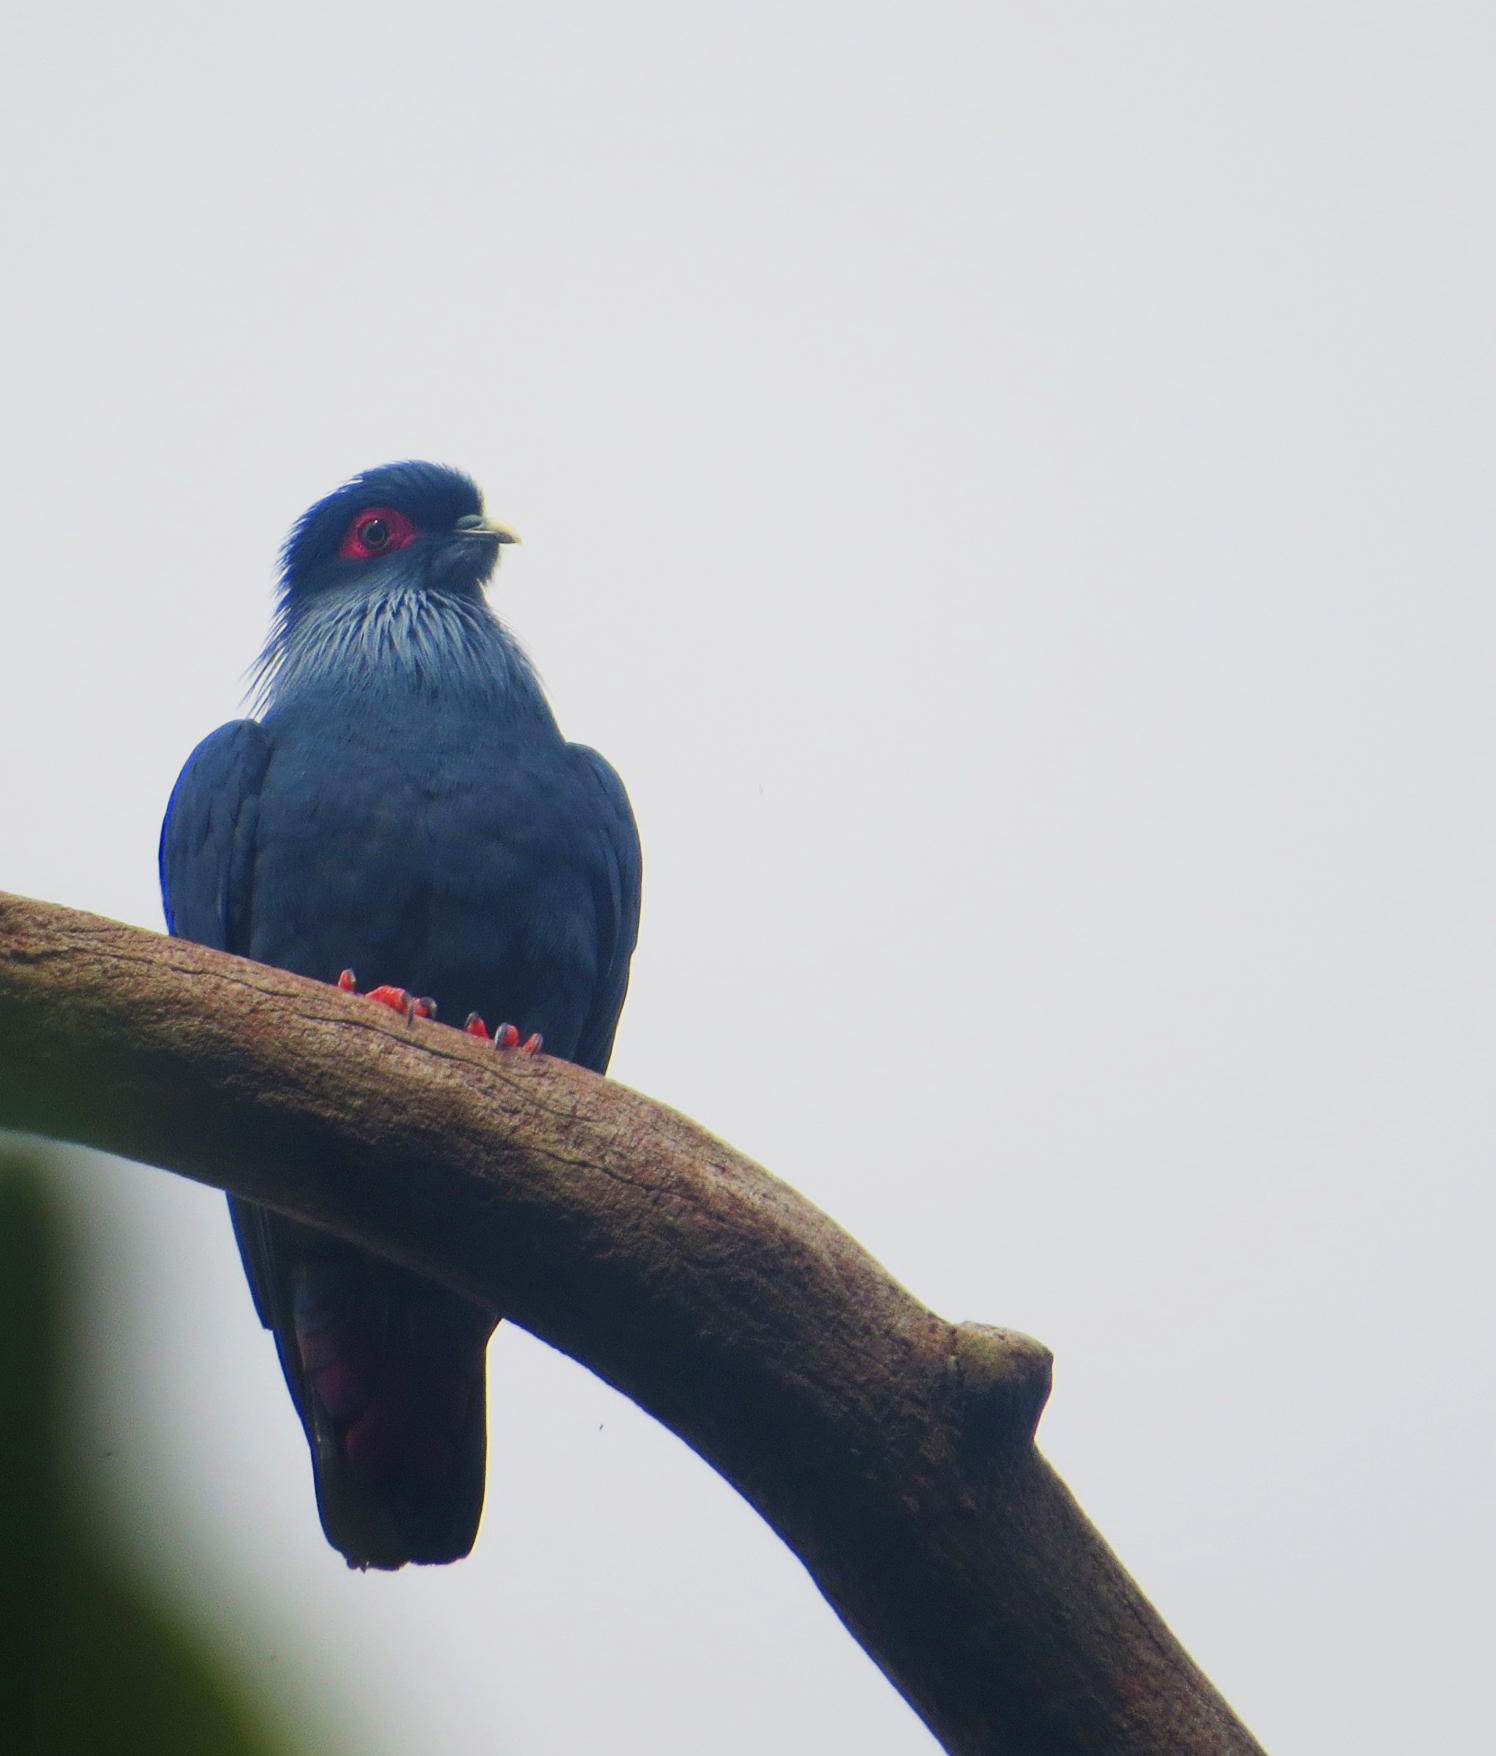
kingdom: Animalia
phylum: Chordata
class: Aves
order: Columbiformes
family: Columbidae
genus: Alectroenas
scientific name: Alectroenas madagascariensis
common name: Madagascar blue pigeon
